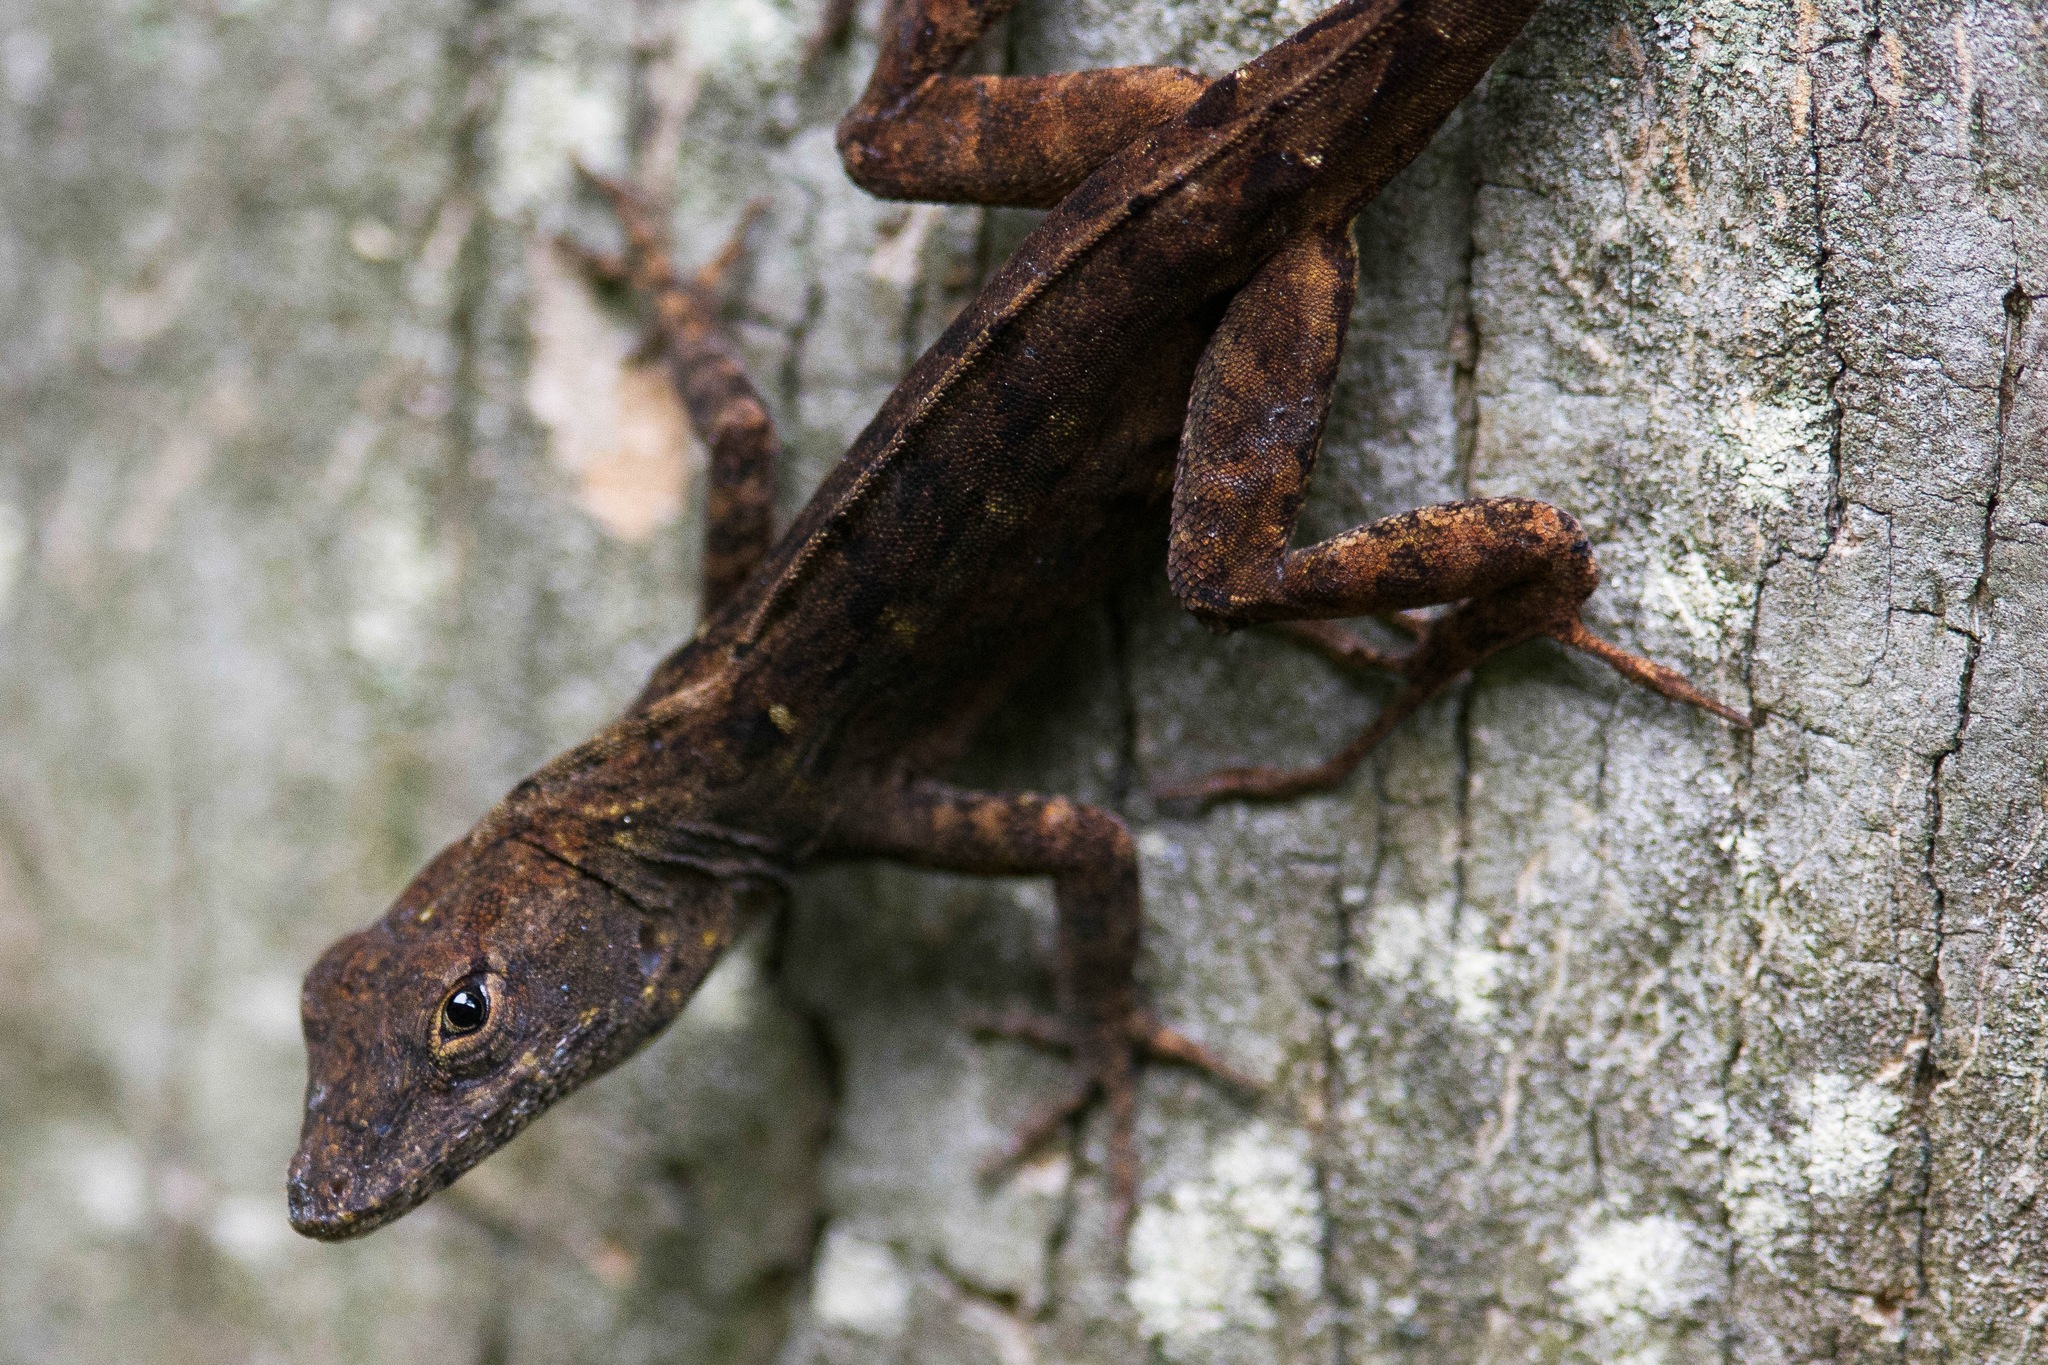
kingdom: Animalia
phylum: Chordata
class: Squamata
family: Dactyloidae
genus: Anolis
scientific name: Anolis sagrei
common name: Brown anole
